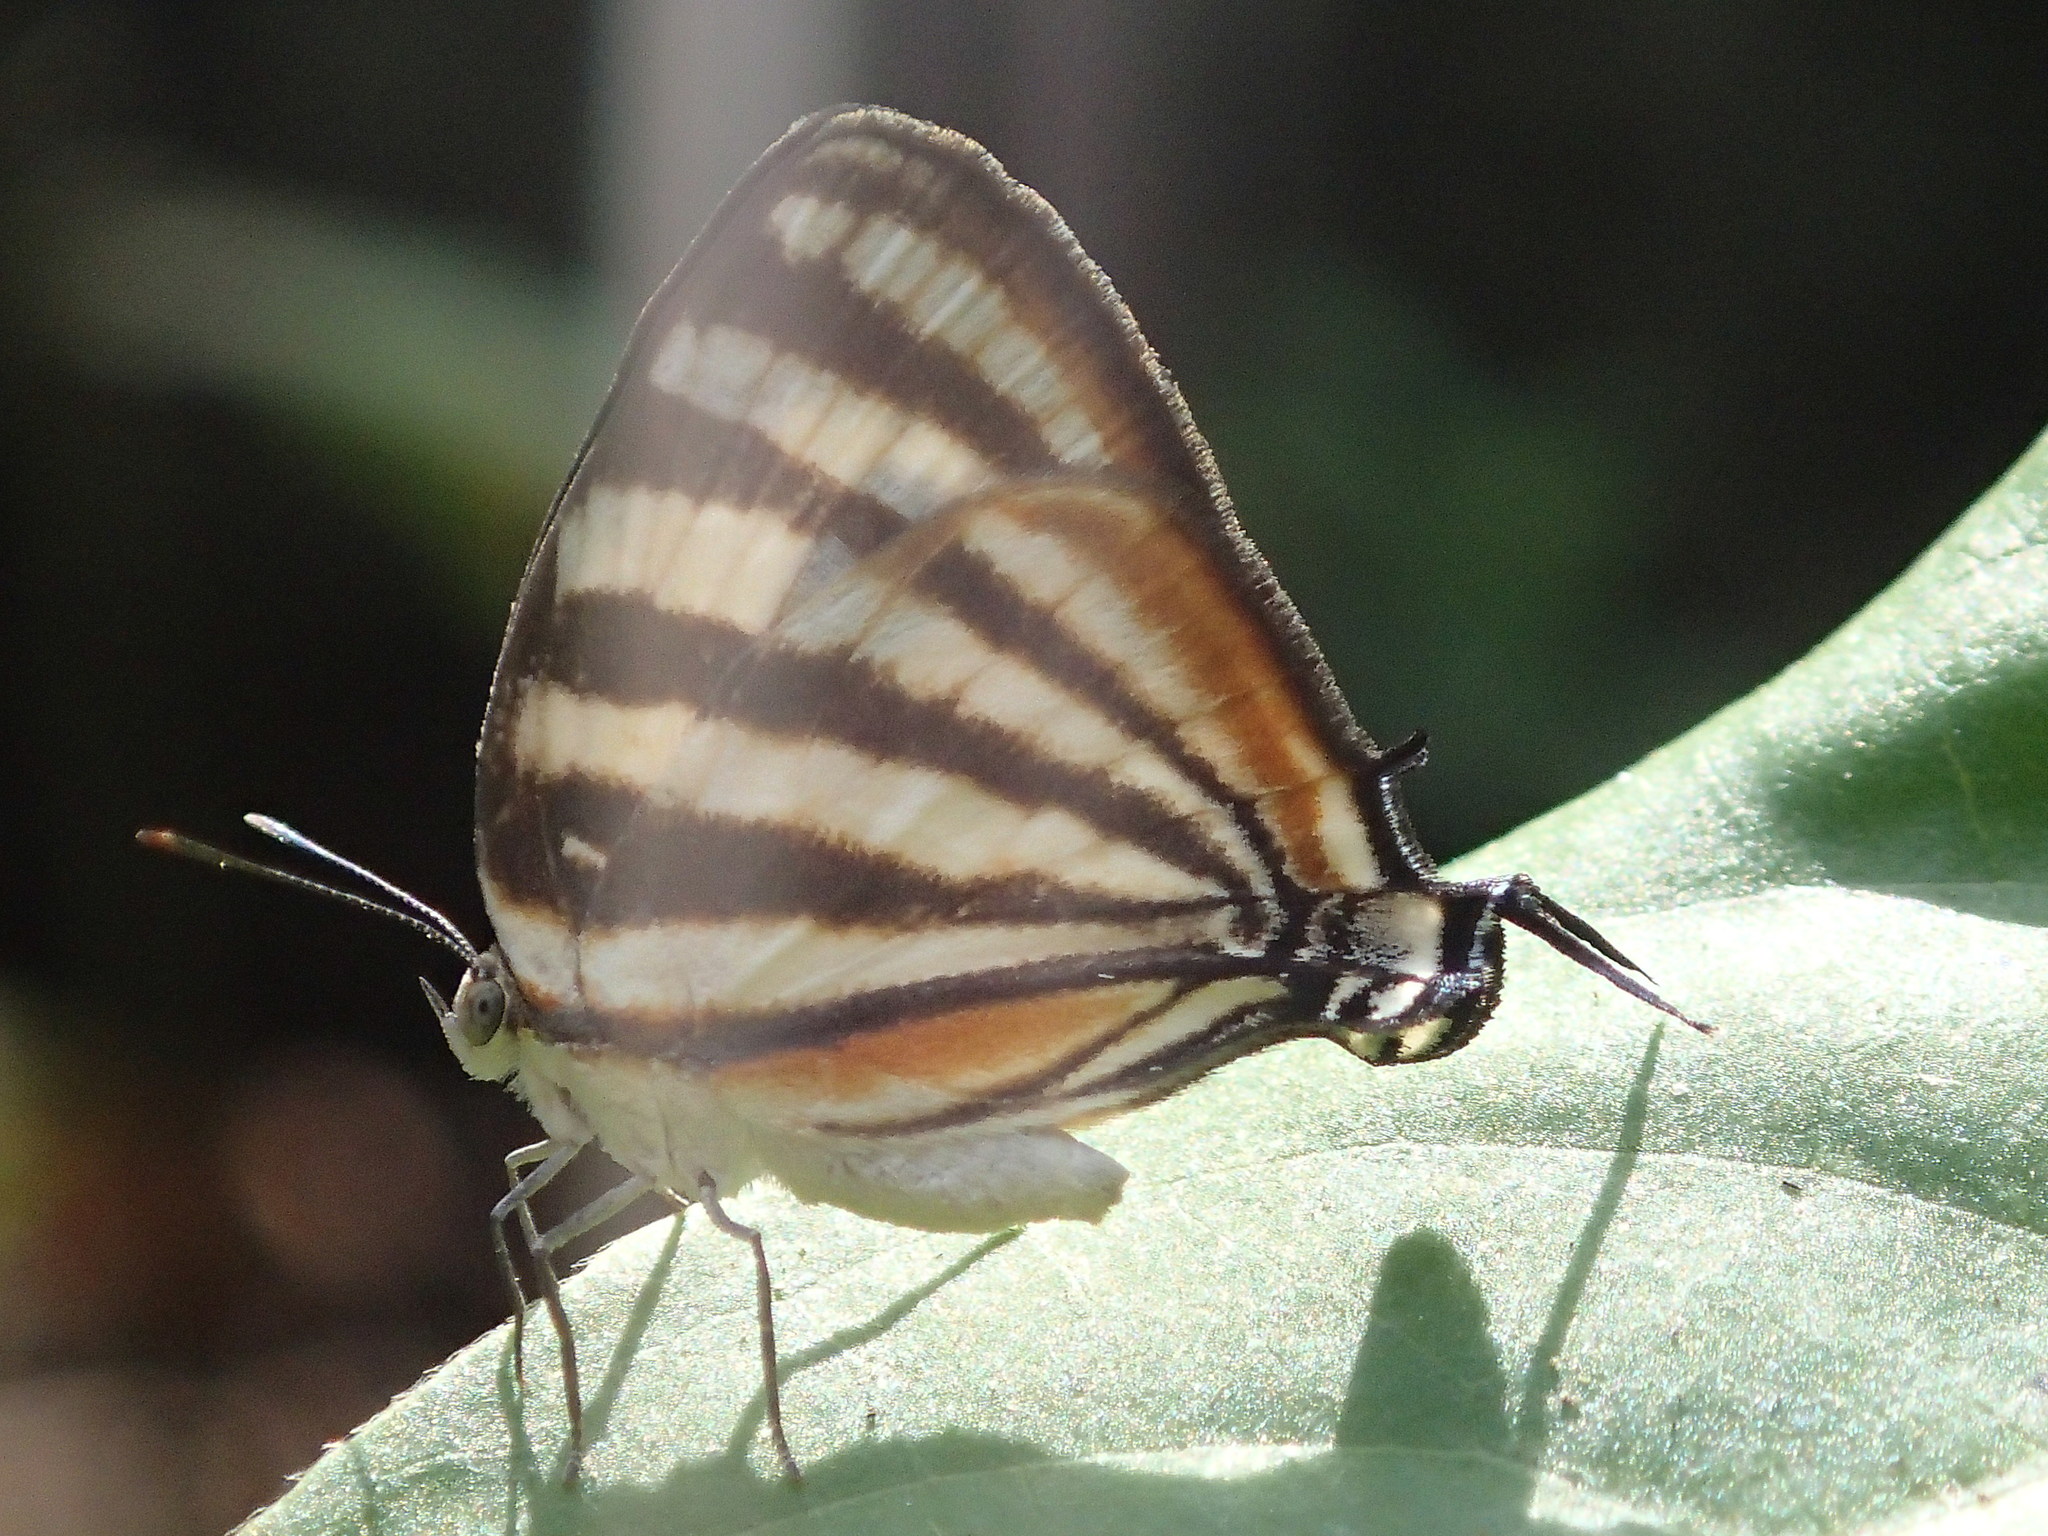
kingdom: Animalia
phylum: Arthropoda
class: Insecta
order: Lepidoptera
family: Lycaenidae
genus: Arawacus
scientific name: Arawacus lincoides
